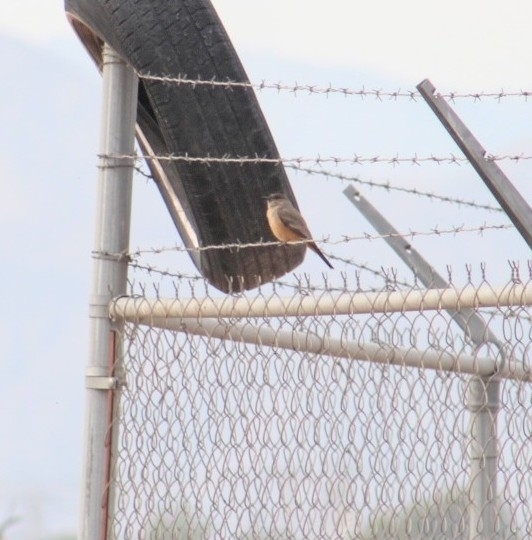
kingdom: Animalia
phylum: Chordata
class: Aves
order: Passeriformes
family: Tyrannidae
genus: Sayornis
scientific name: Sayornis saya
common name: Say's phoebe
